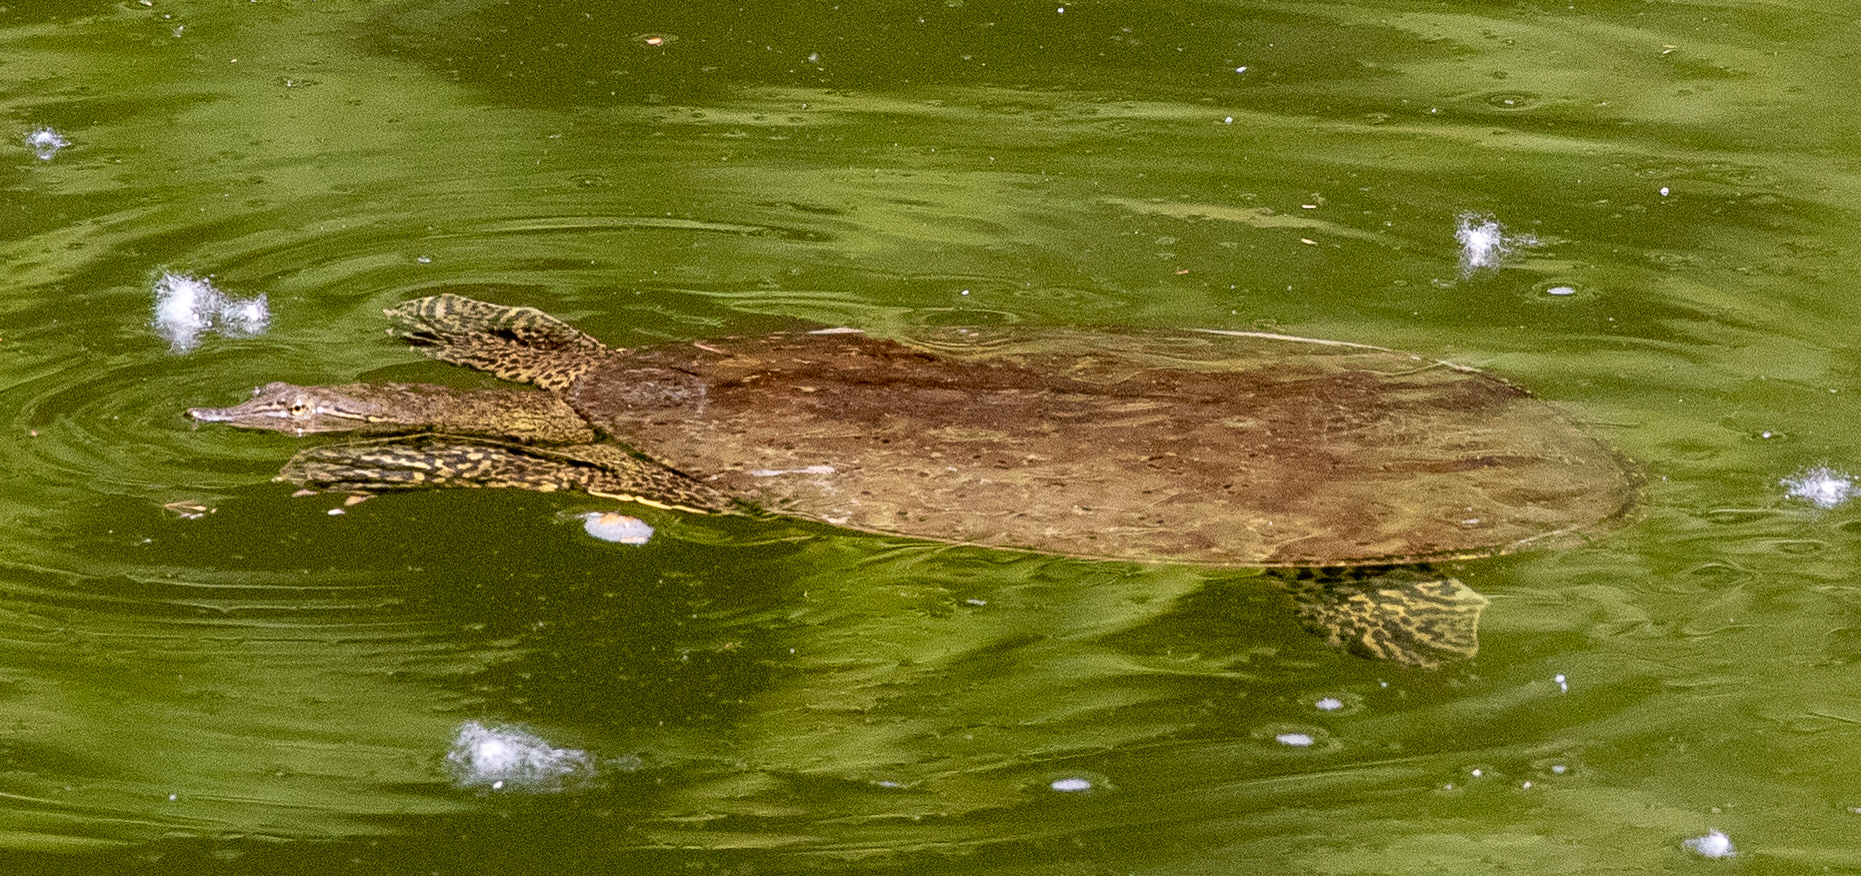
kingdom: Animalia
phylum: Chordata
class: Testudines
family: Trionychidae
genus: Apalone
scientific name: Apalone spinifera
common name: Spiny softshell turtle
